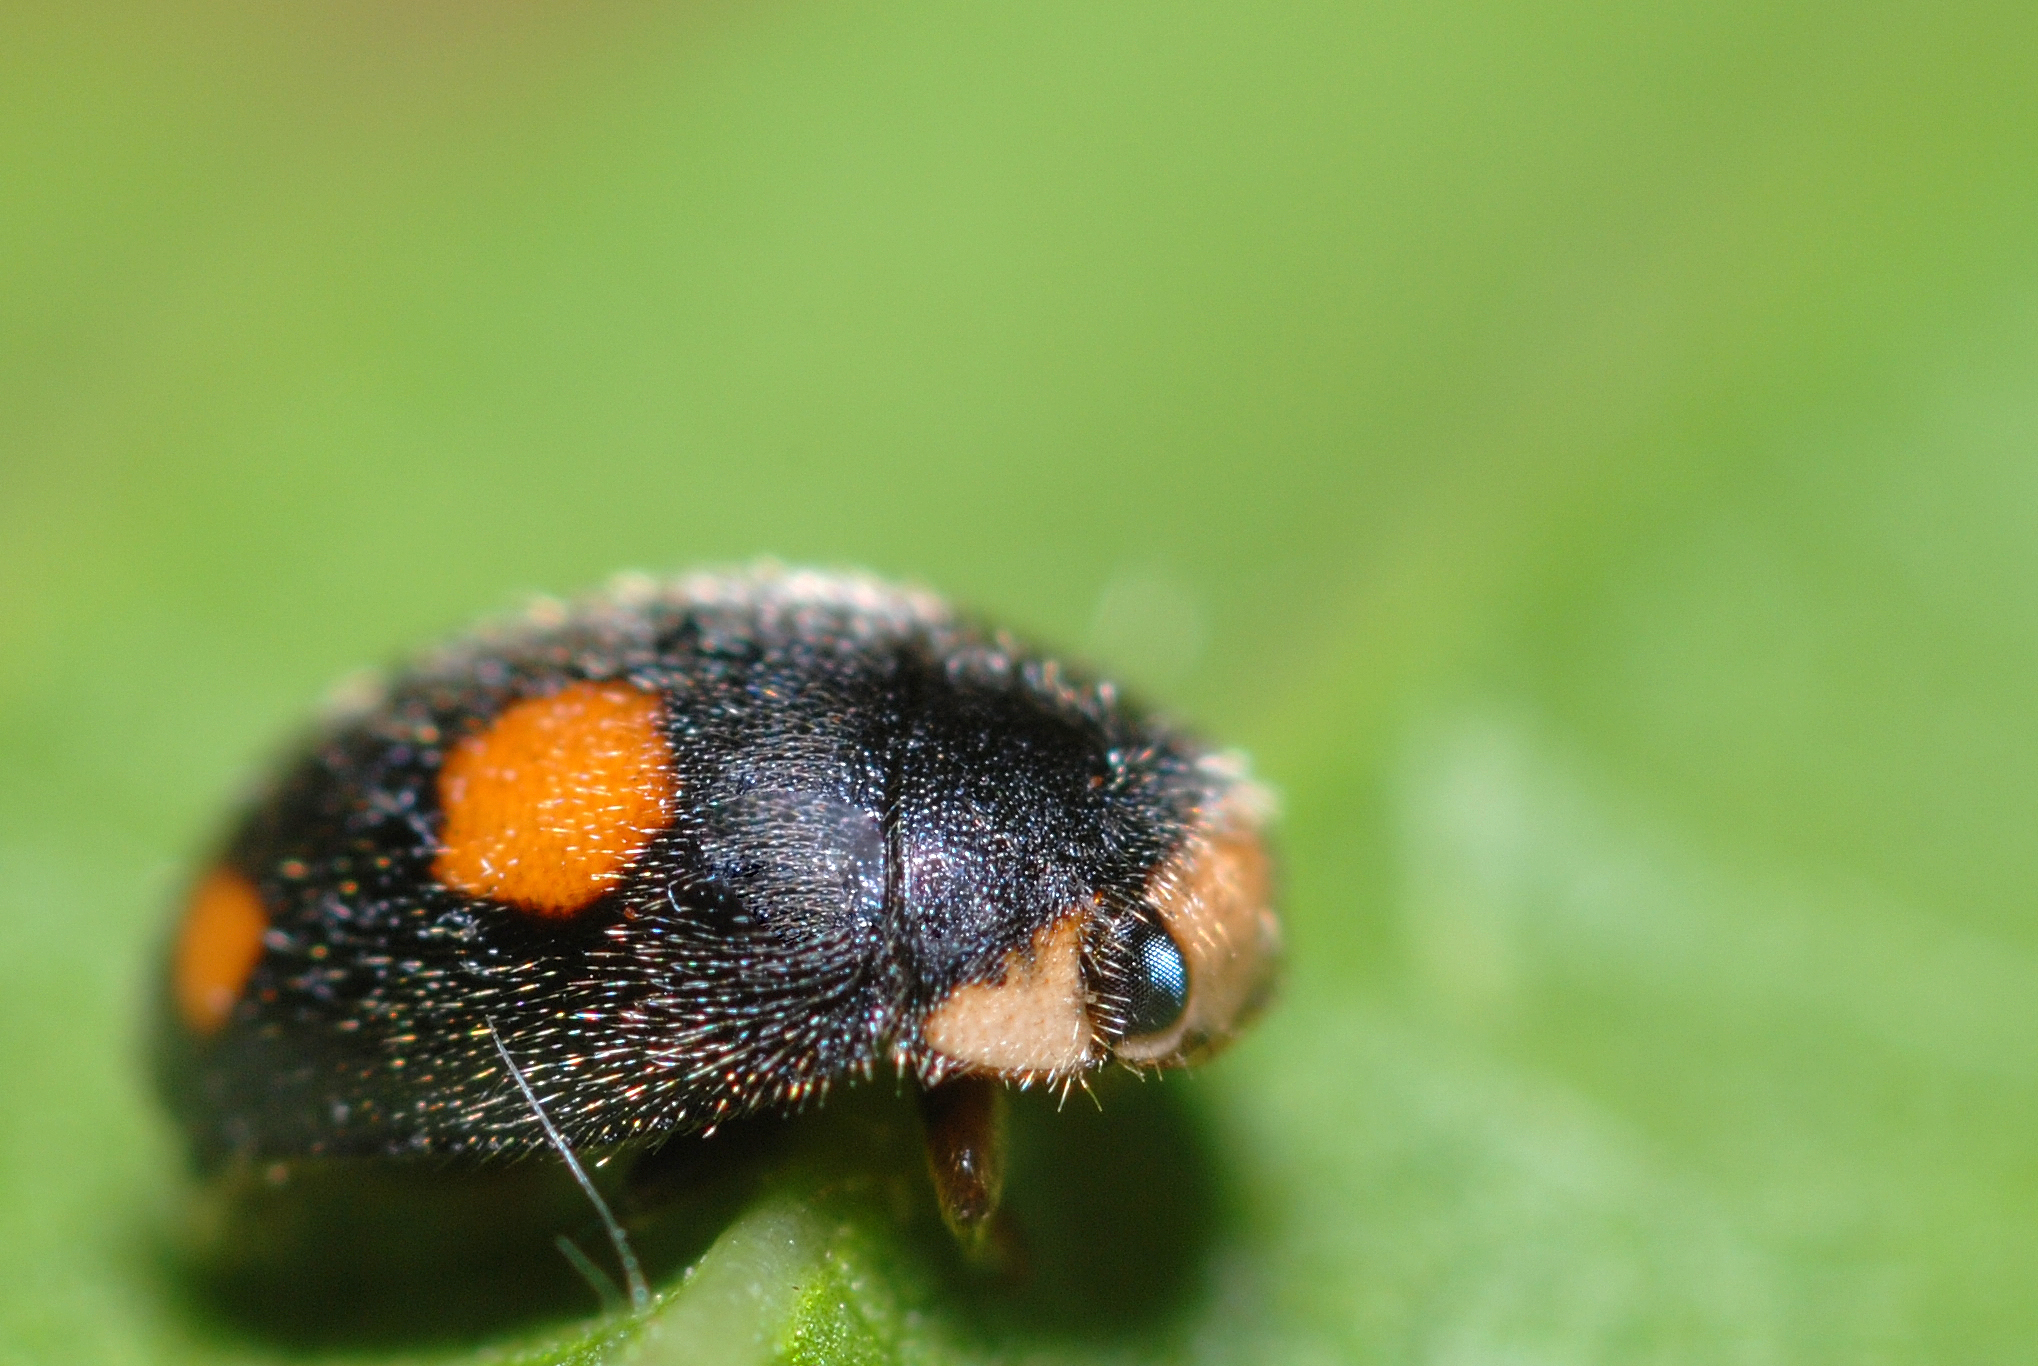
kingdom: Animalia
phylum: Arthropoda
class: Insecta
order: Coleoptera
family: Coccinellidae
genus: Platynaspis
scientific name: Platynaspis luteorubra
